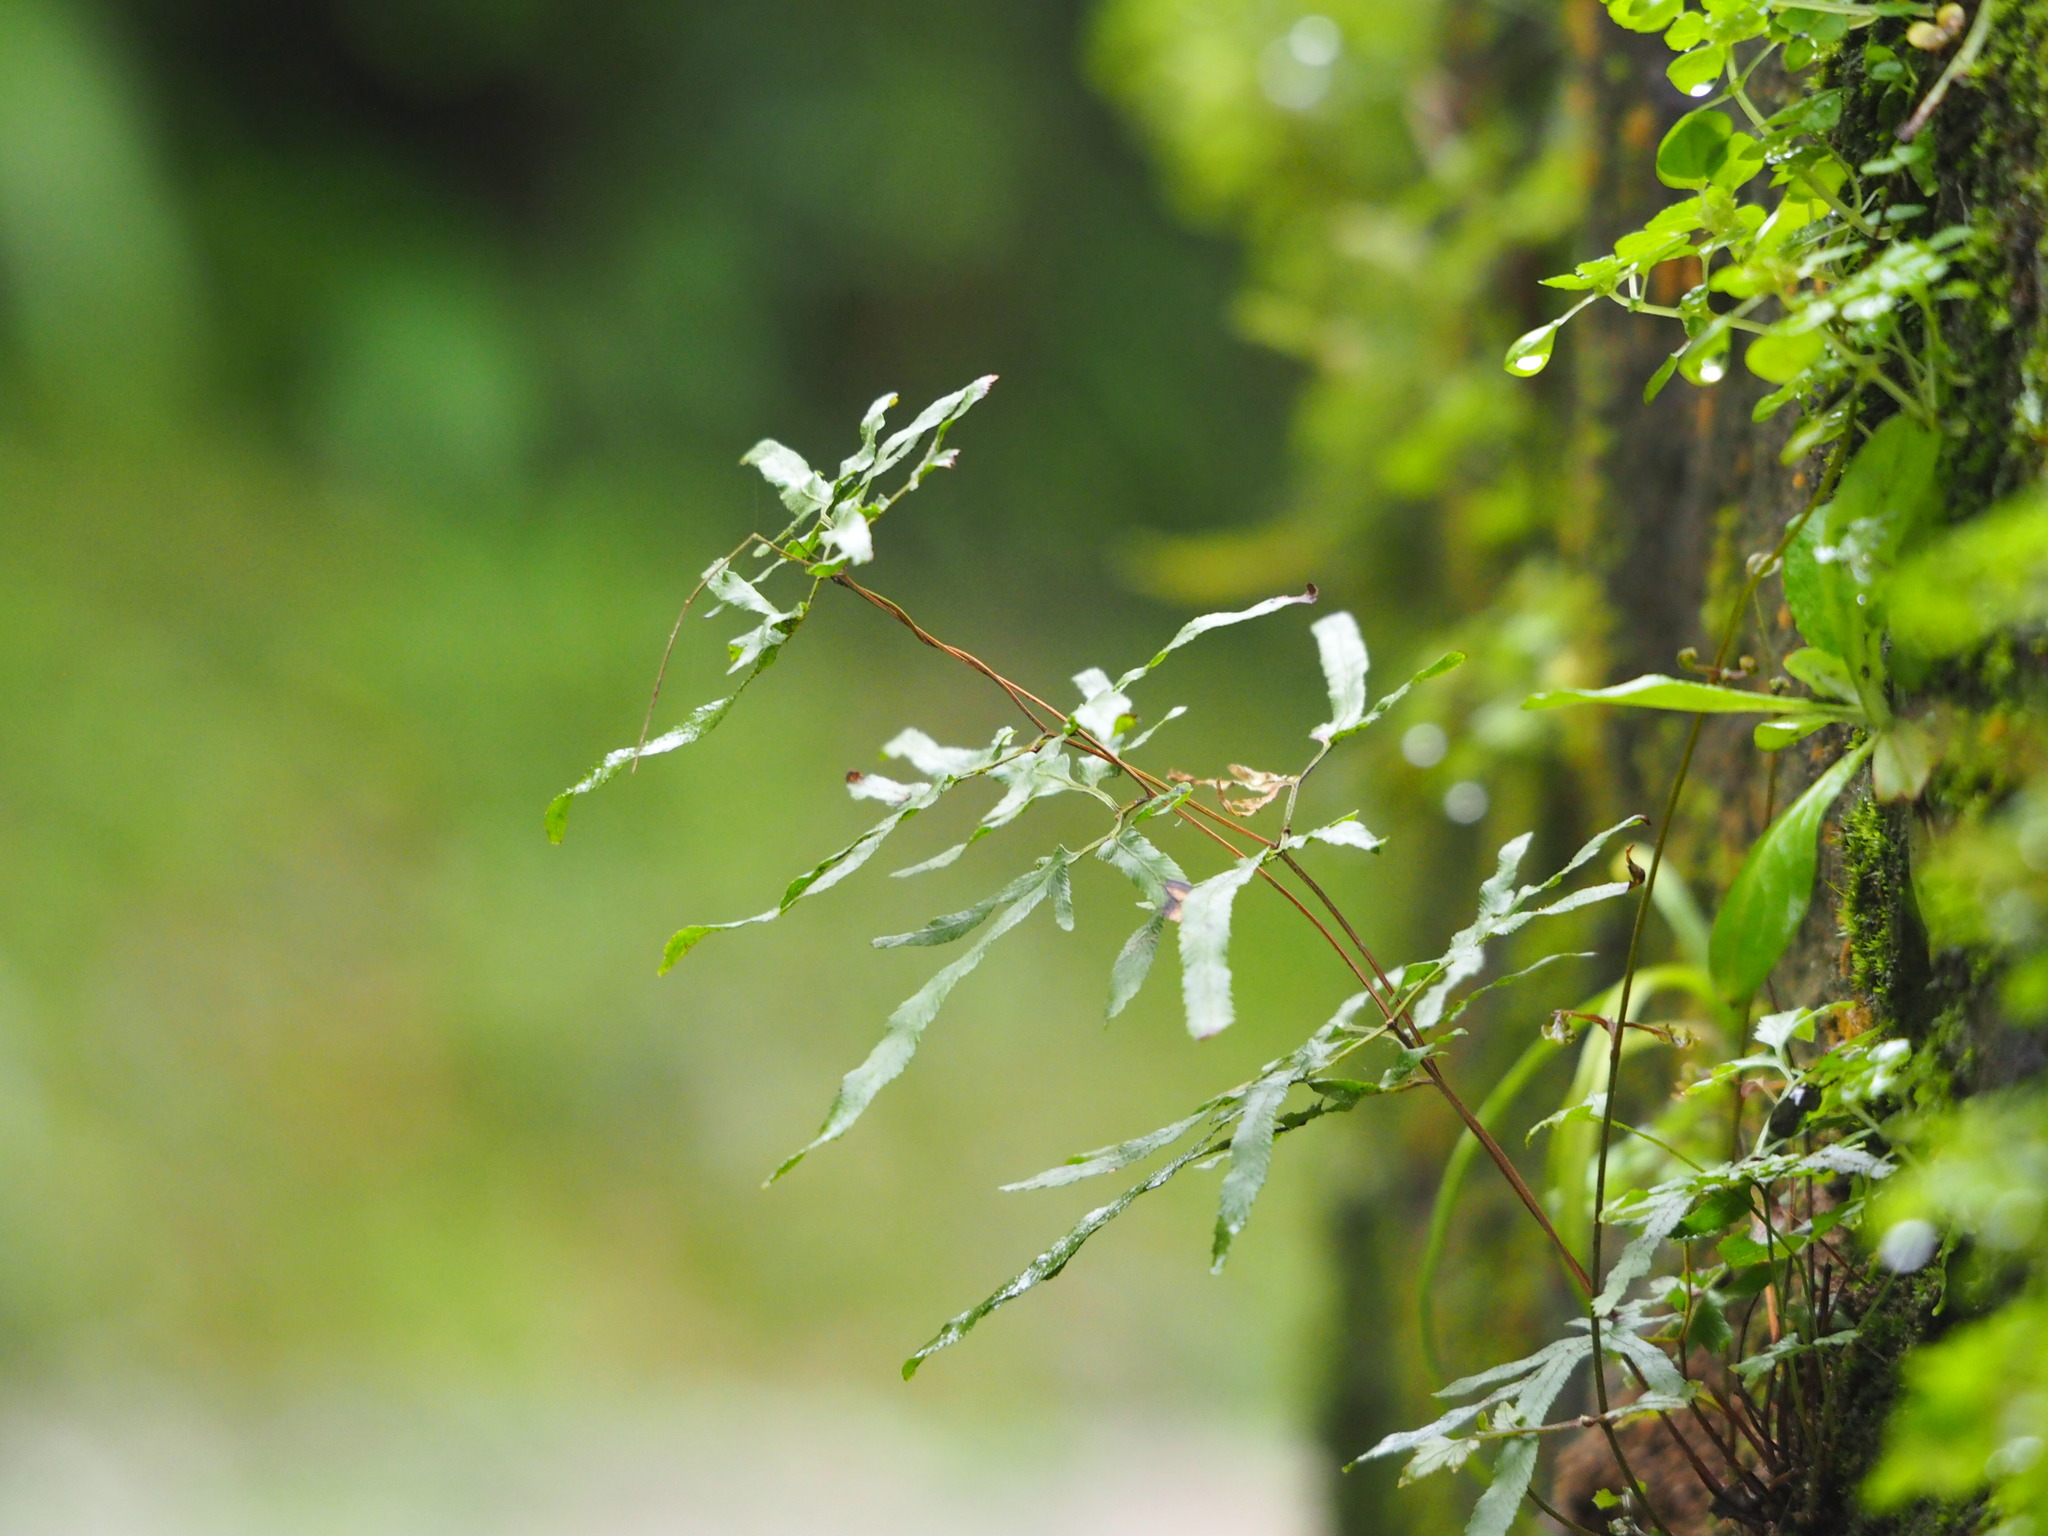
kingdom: Plantae
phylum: Tracheophyta
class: Polypodiopsida
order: Schizaeales
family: Lygodiaceae
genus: Lygodium
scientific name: Lygodium japonicum
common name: Japanese climbing fern
